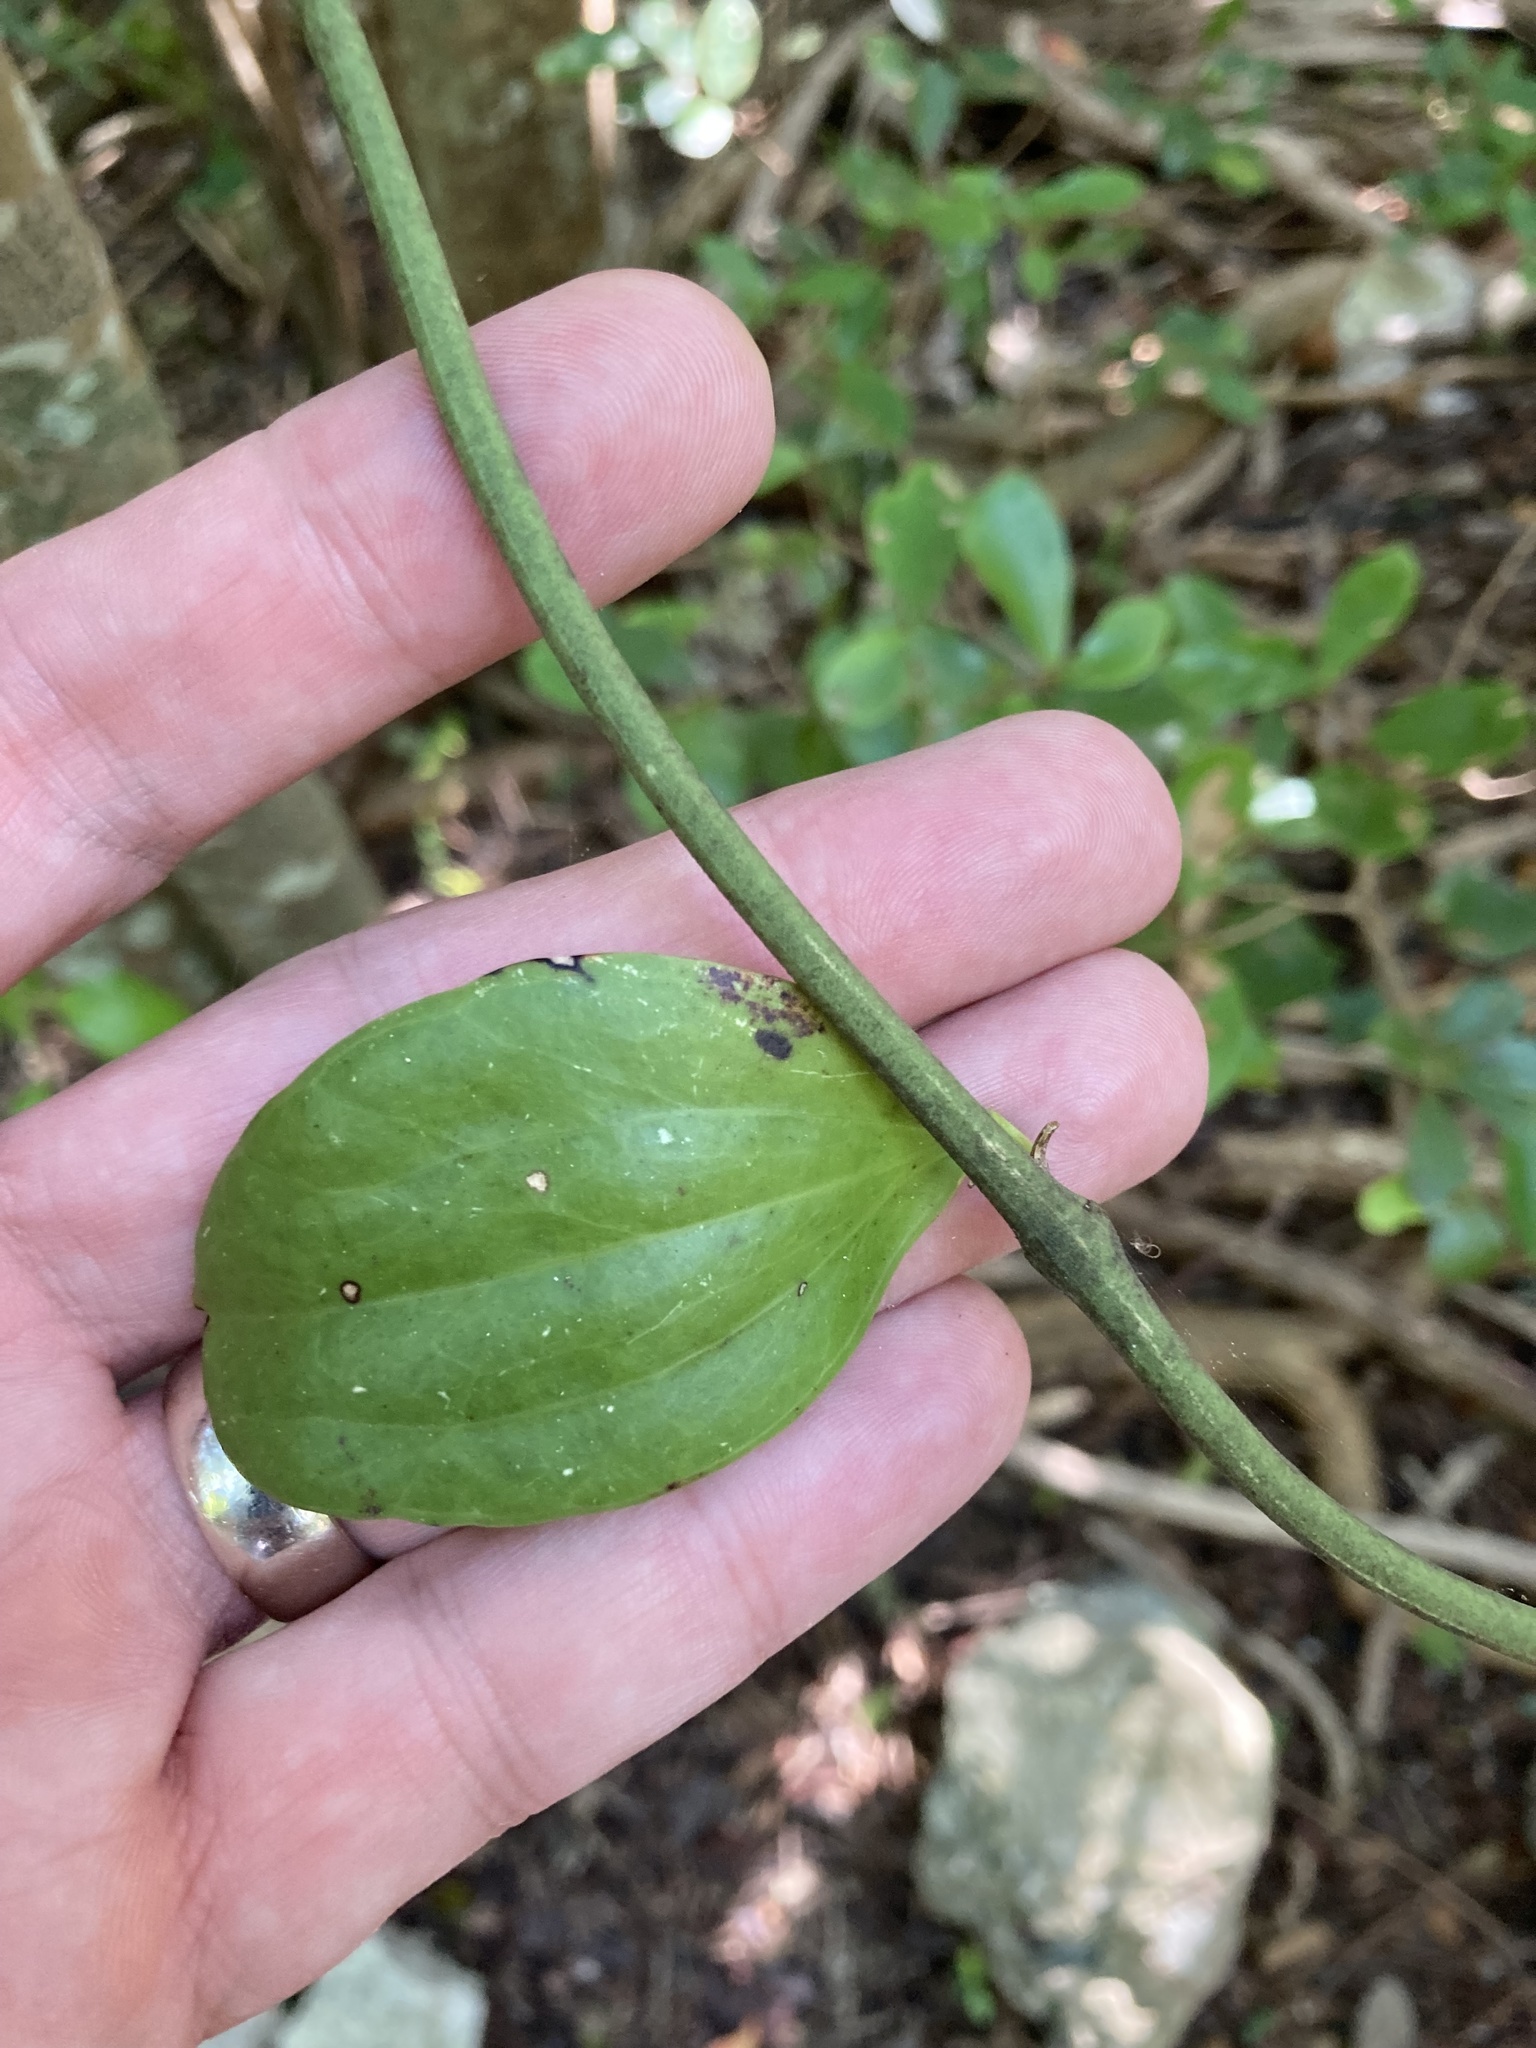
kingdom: Plantae
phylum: Tracheophyta
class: Liliopsida
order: Liliales
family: Smilacaceae
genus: Smilax
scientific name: Smilax havanensis
